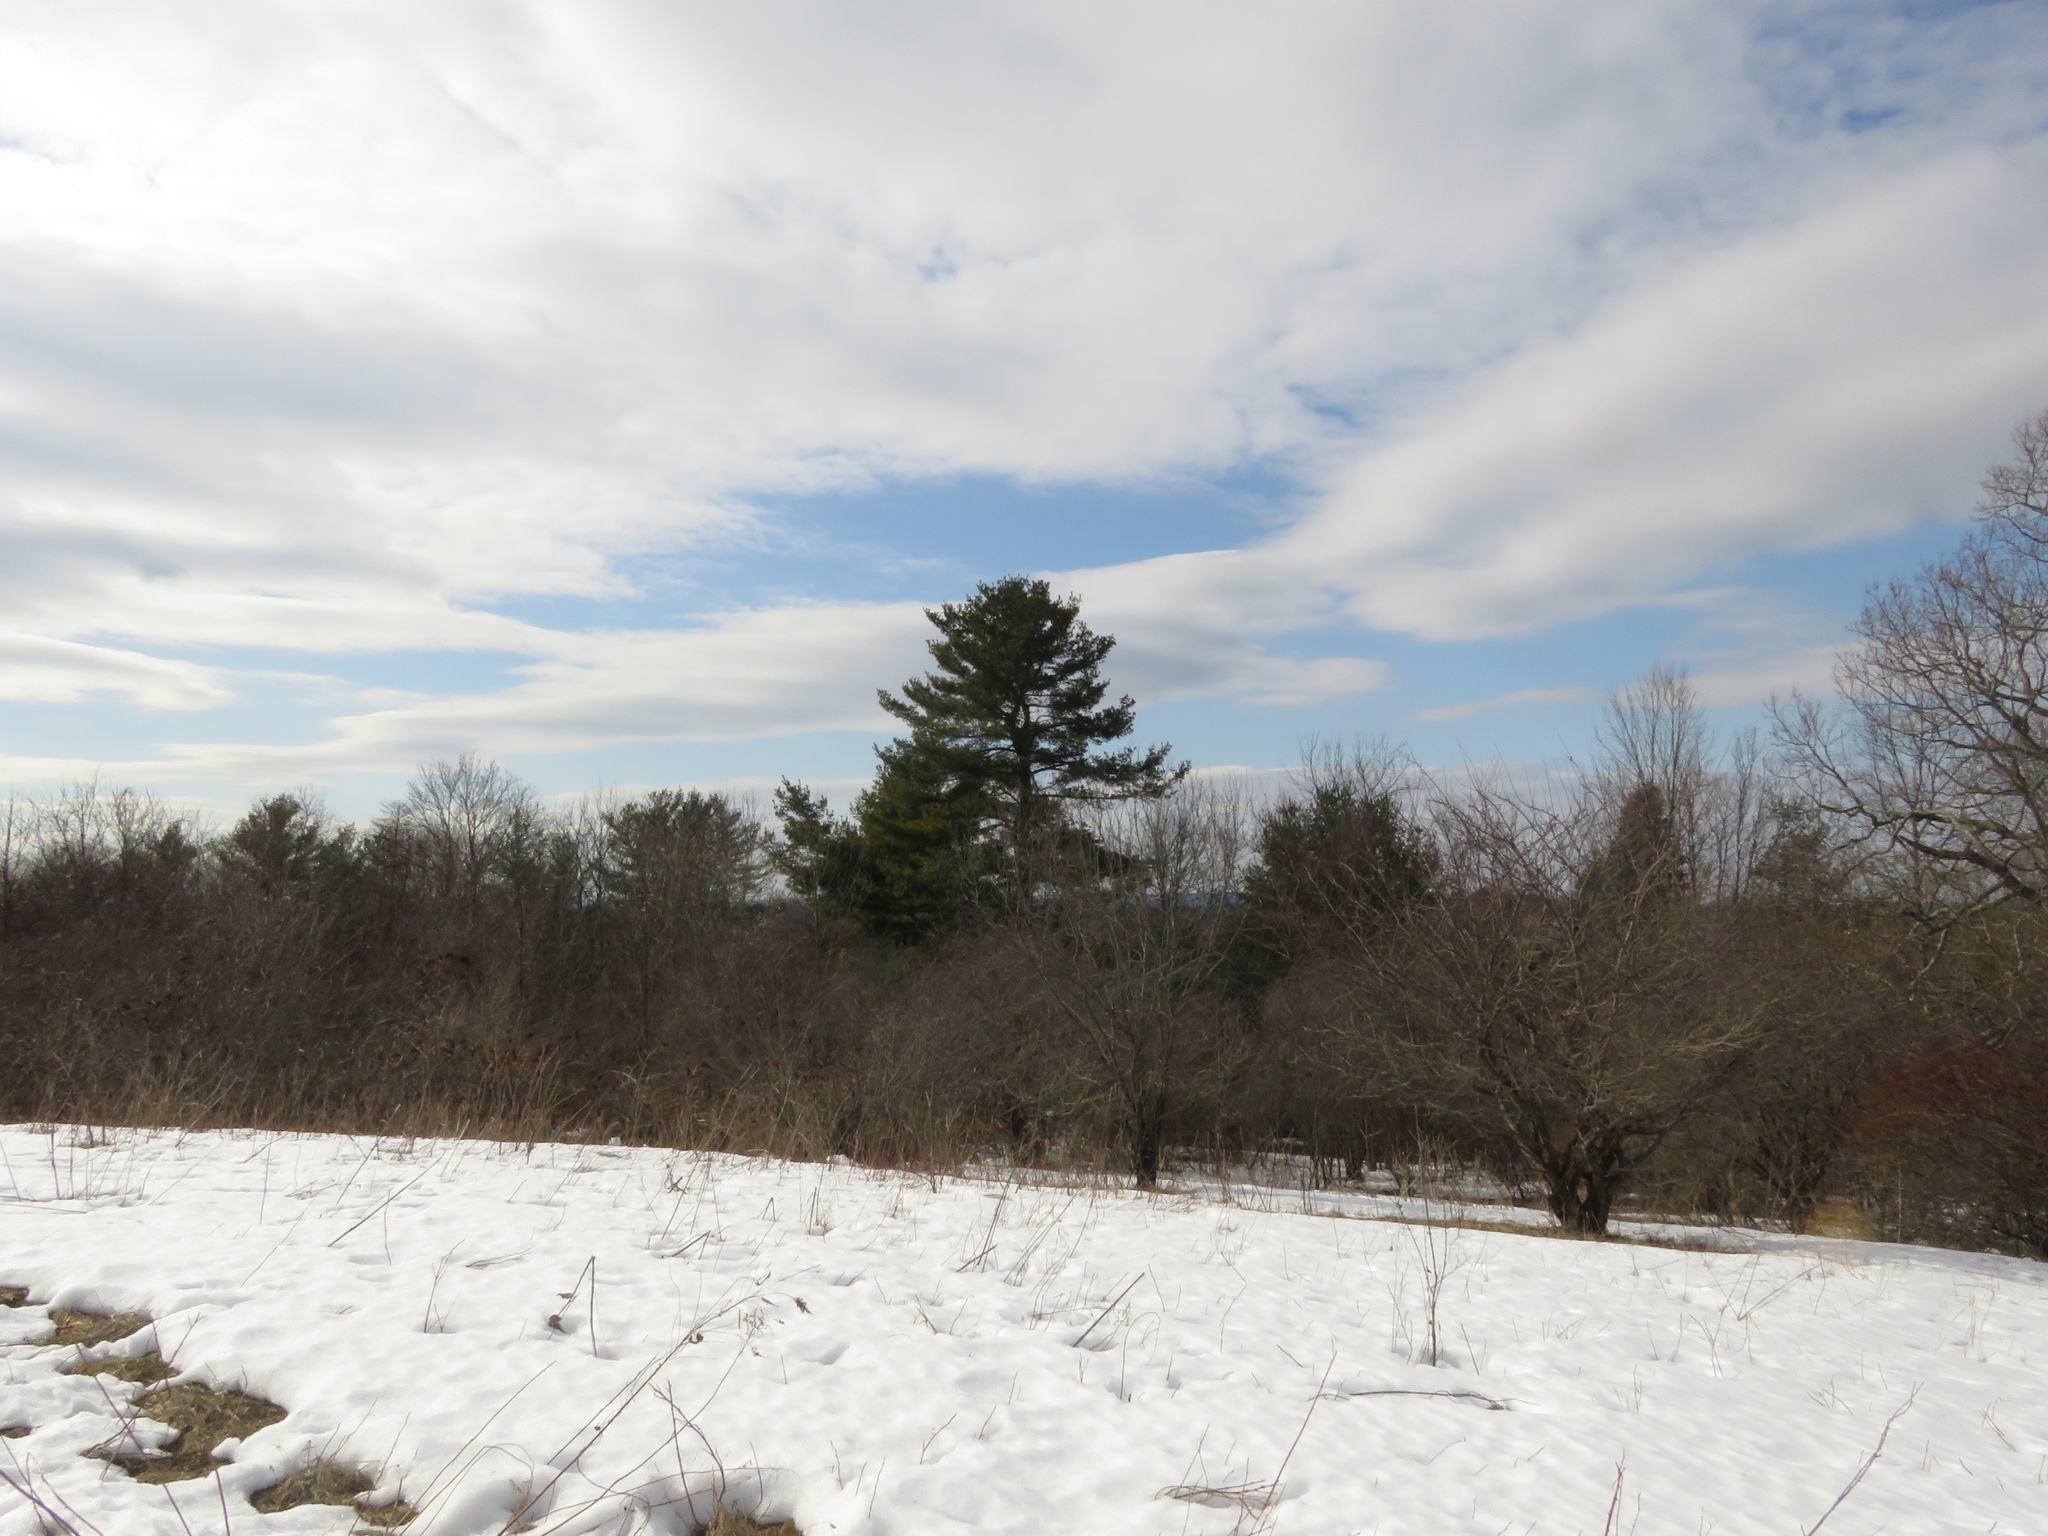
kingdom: Plantae
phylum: Tracheophyta
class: Pinopsida
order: Pinales
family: Pinaceae
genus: Pinus
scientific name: Pinus strobus
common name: Weymouth pine
